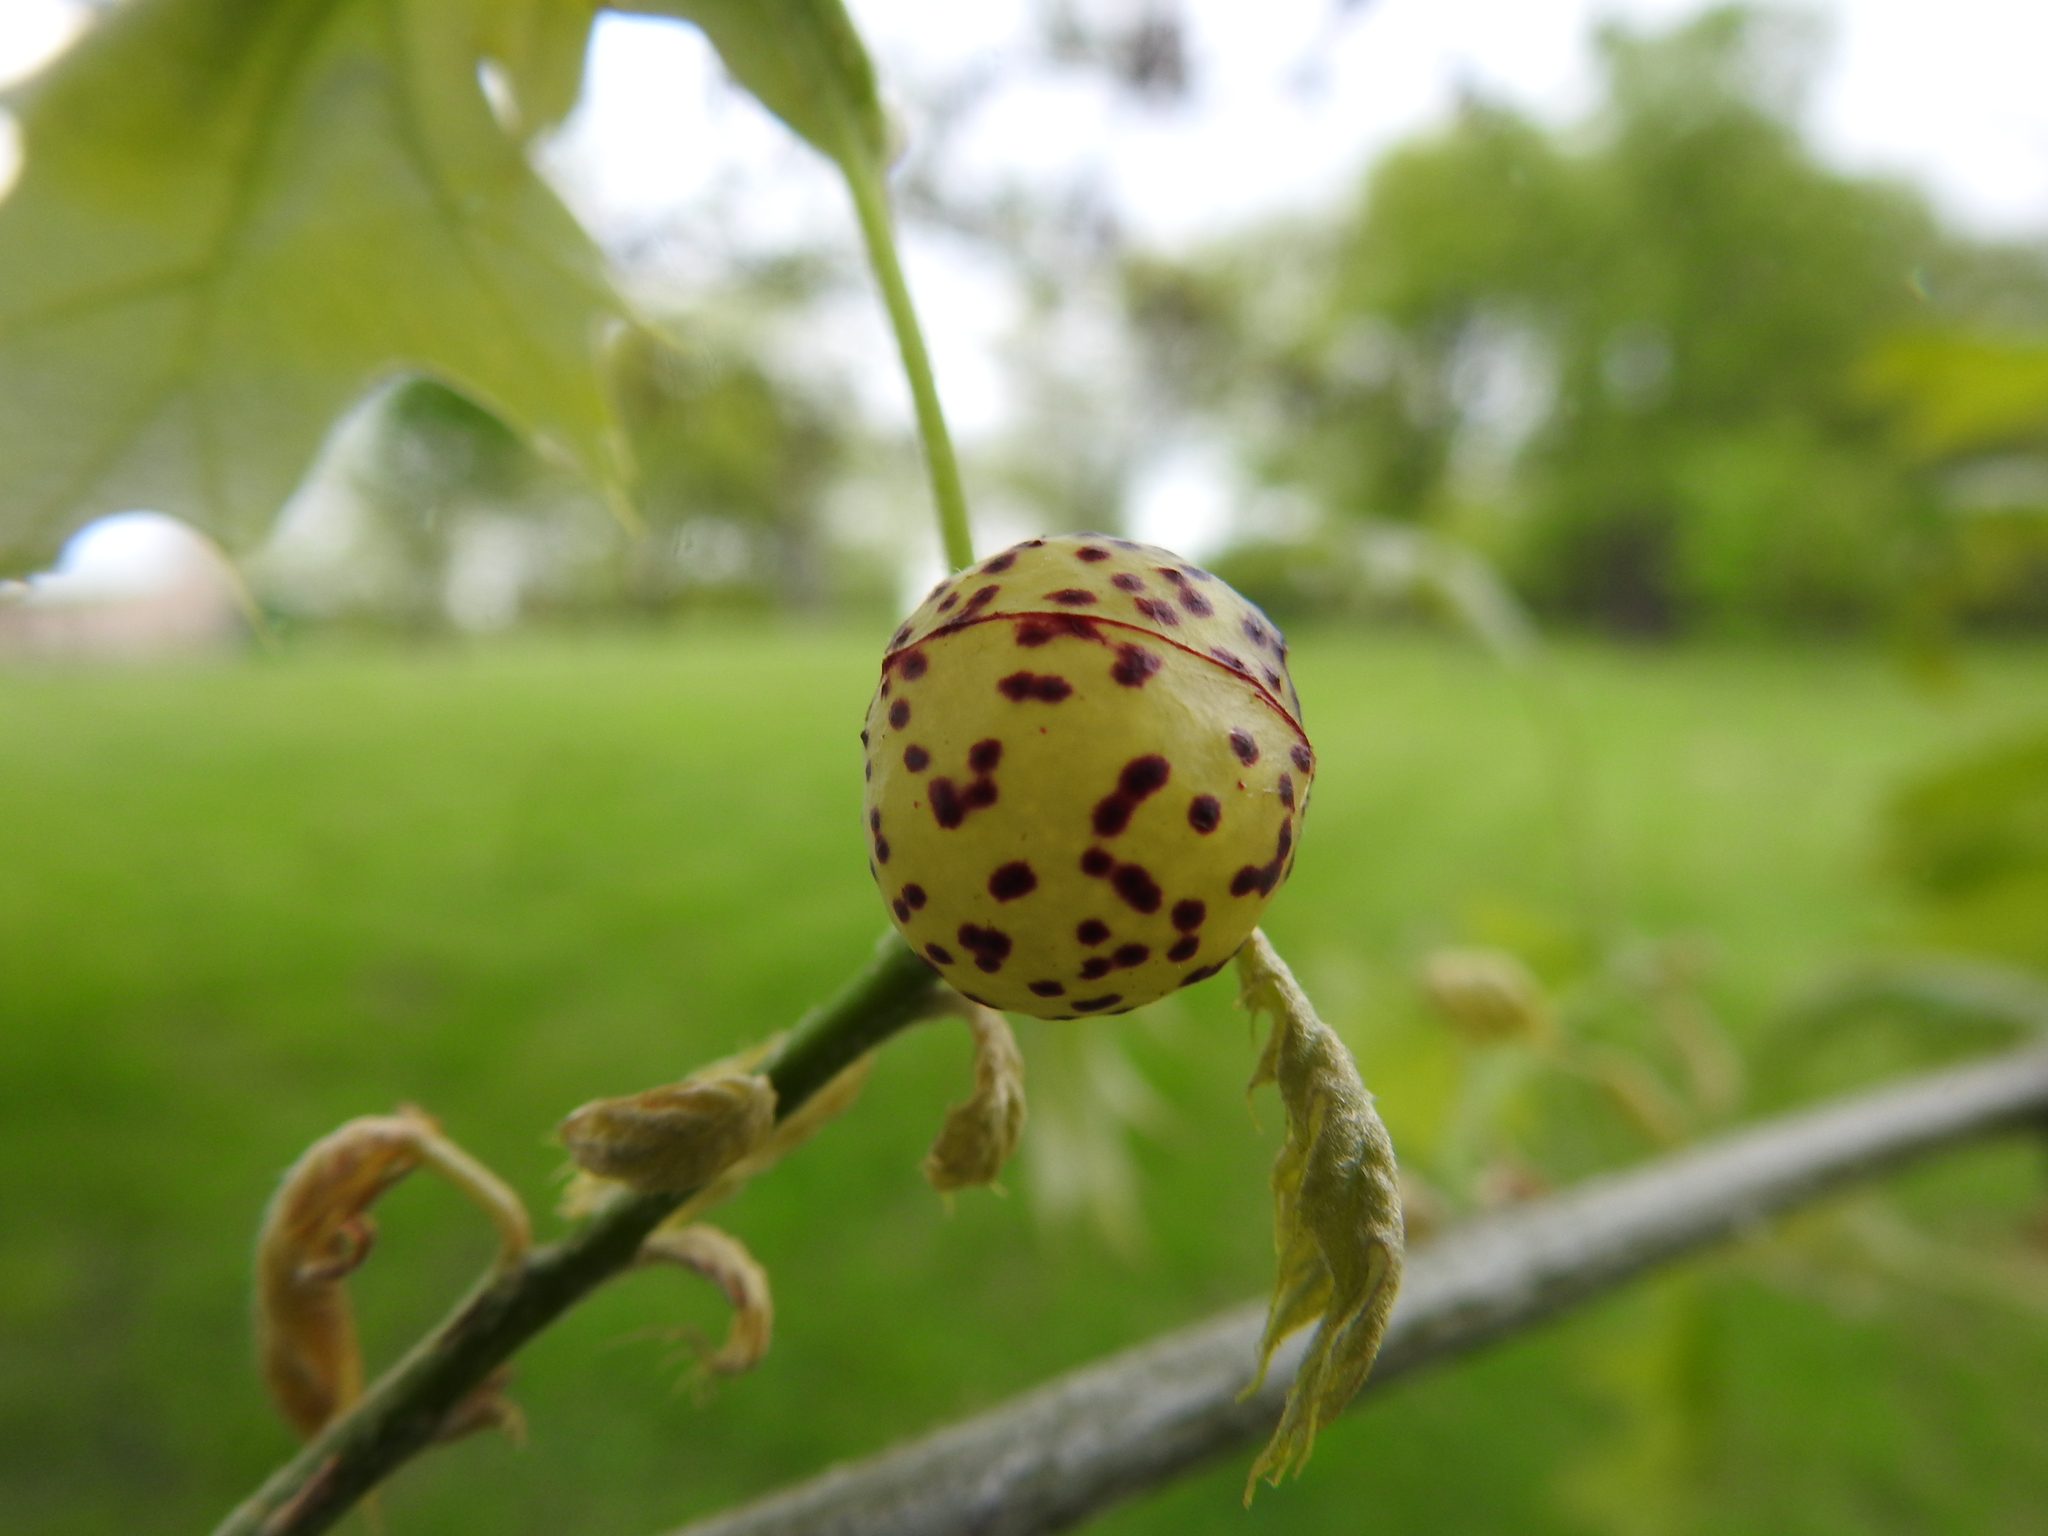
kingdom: Animalia
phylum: Arthropoda
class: Insecta
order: Hymenoptera
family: Cynipidae
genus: Amphibolips
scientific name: Amphibolips
